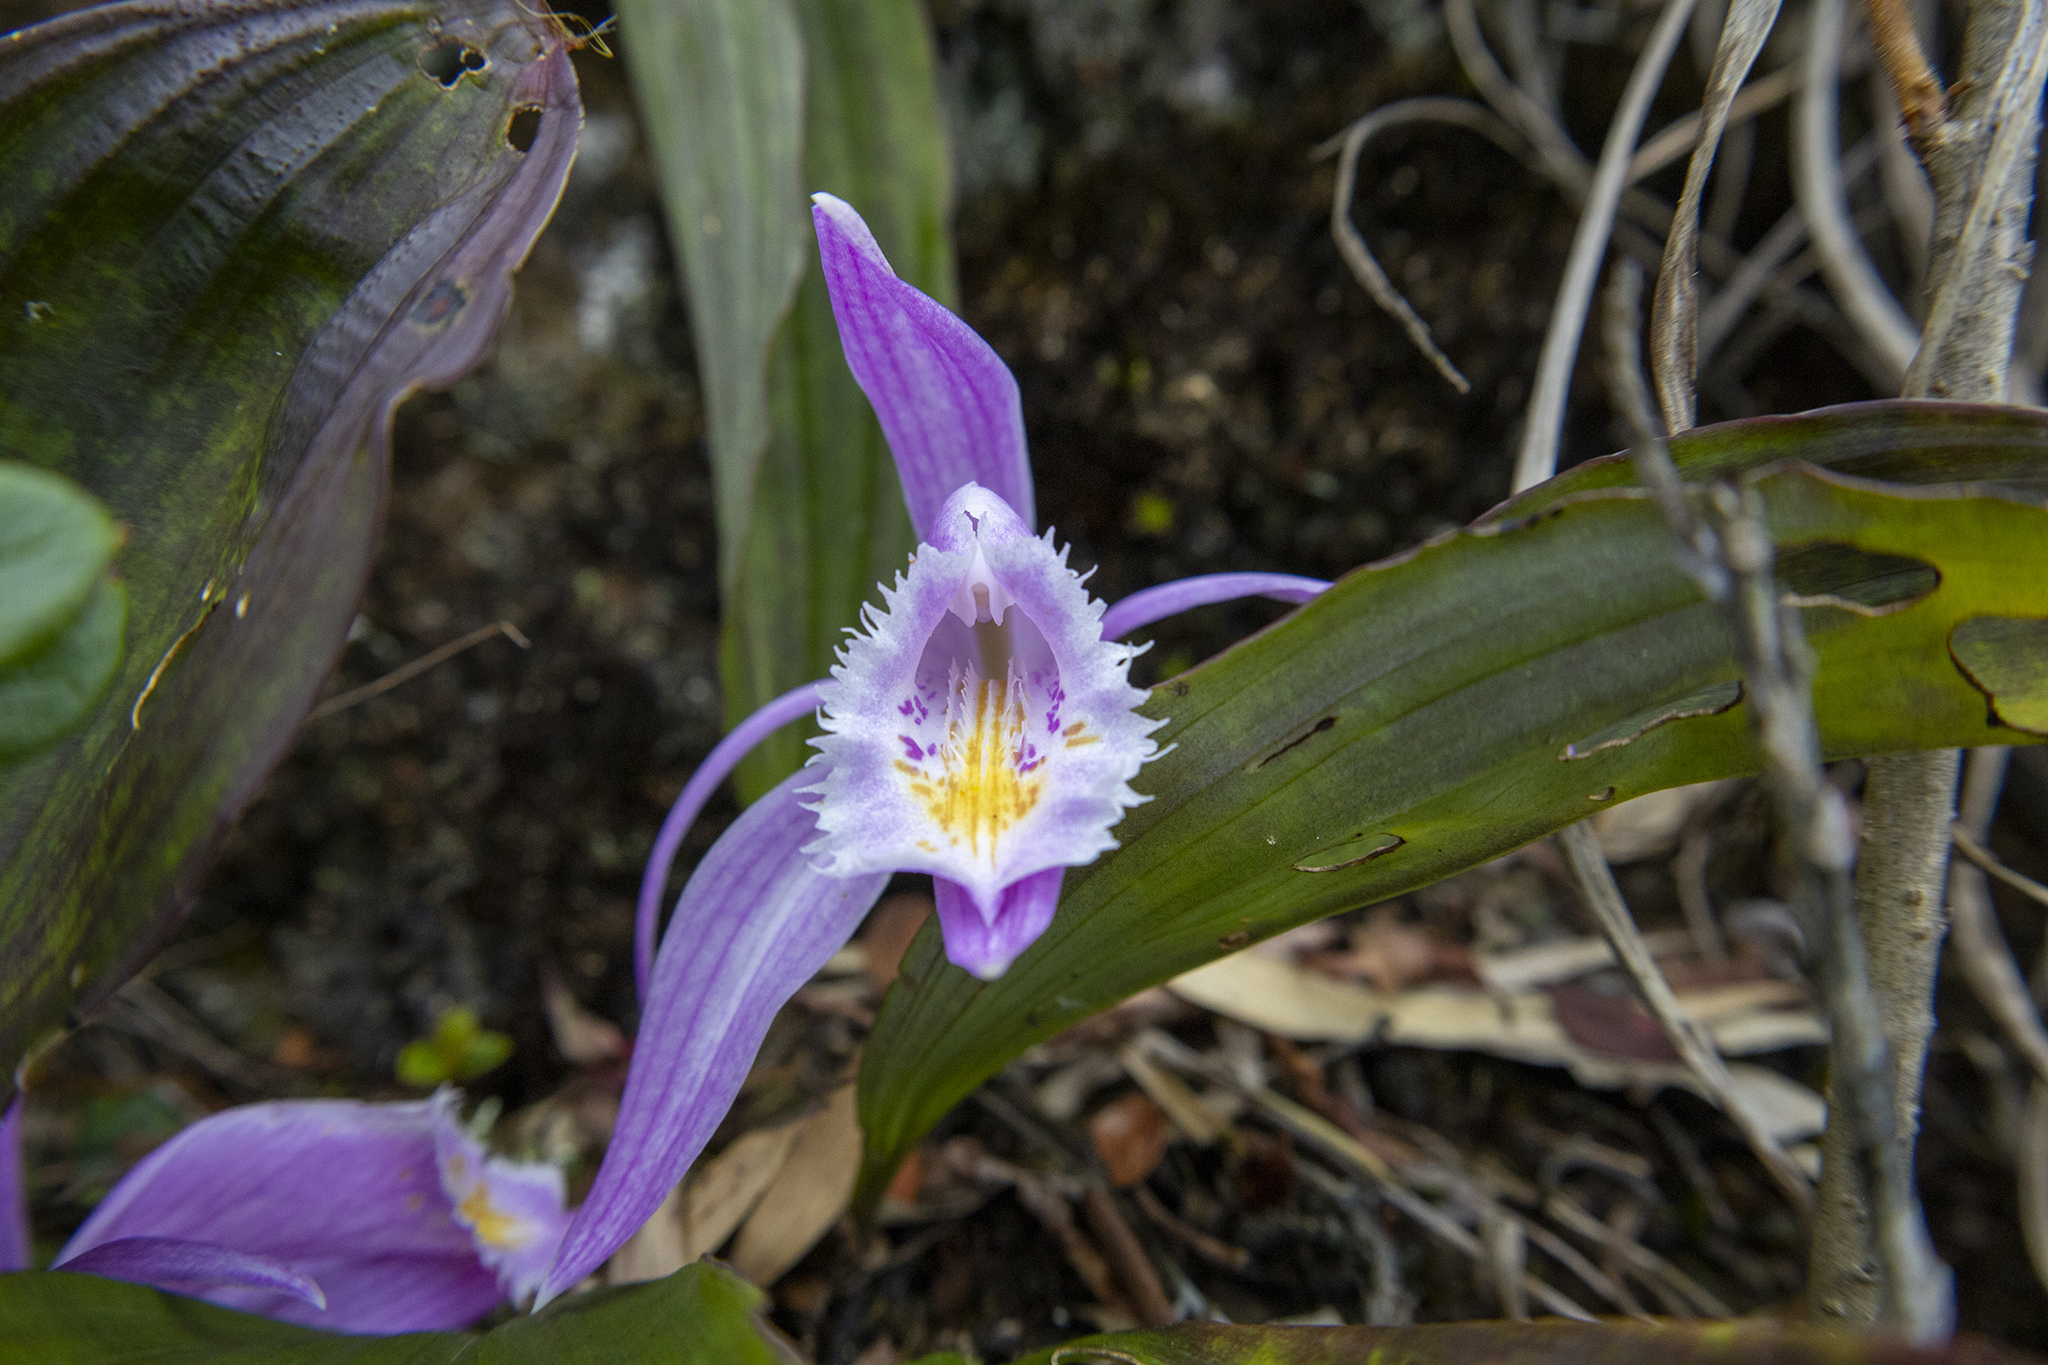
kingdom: Plantae
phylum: Tracheophyta
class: Liliopsida
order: Asparagales
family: Orchidaceae
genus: Pleione
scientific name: Pleione praecox
